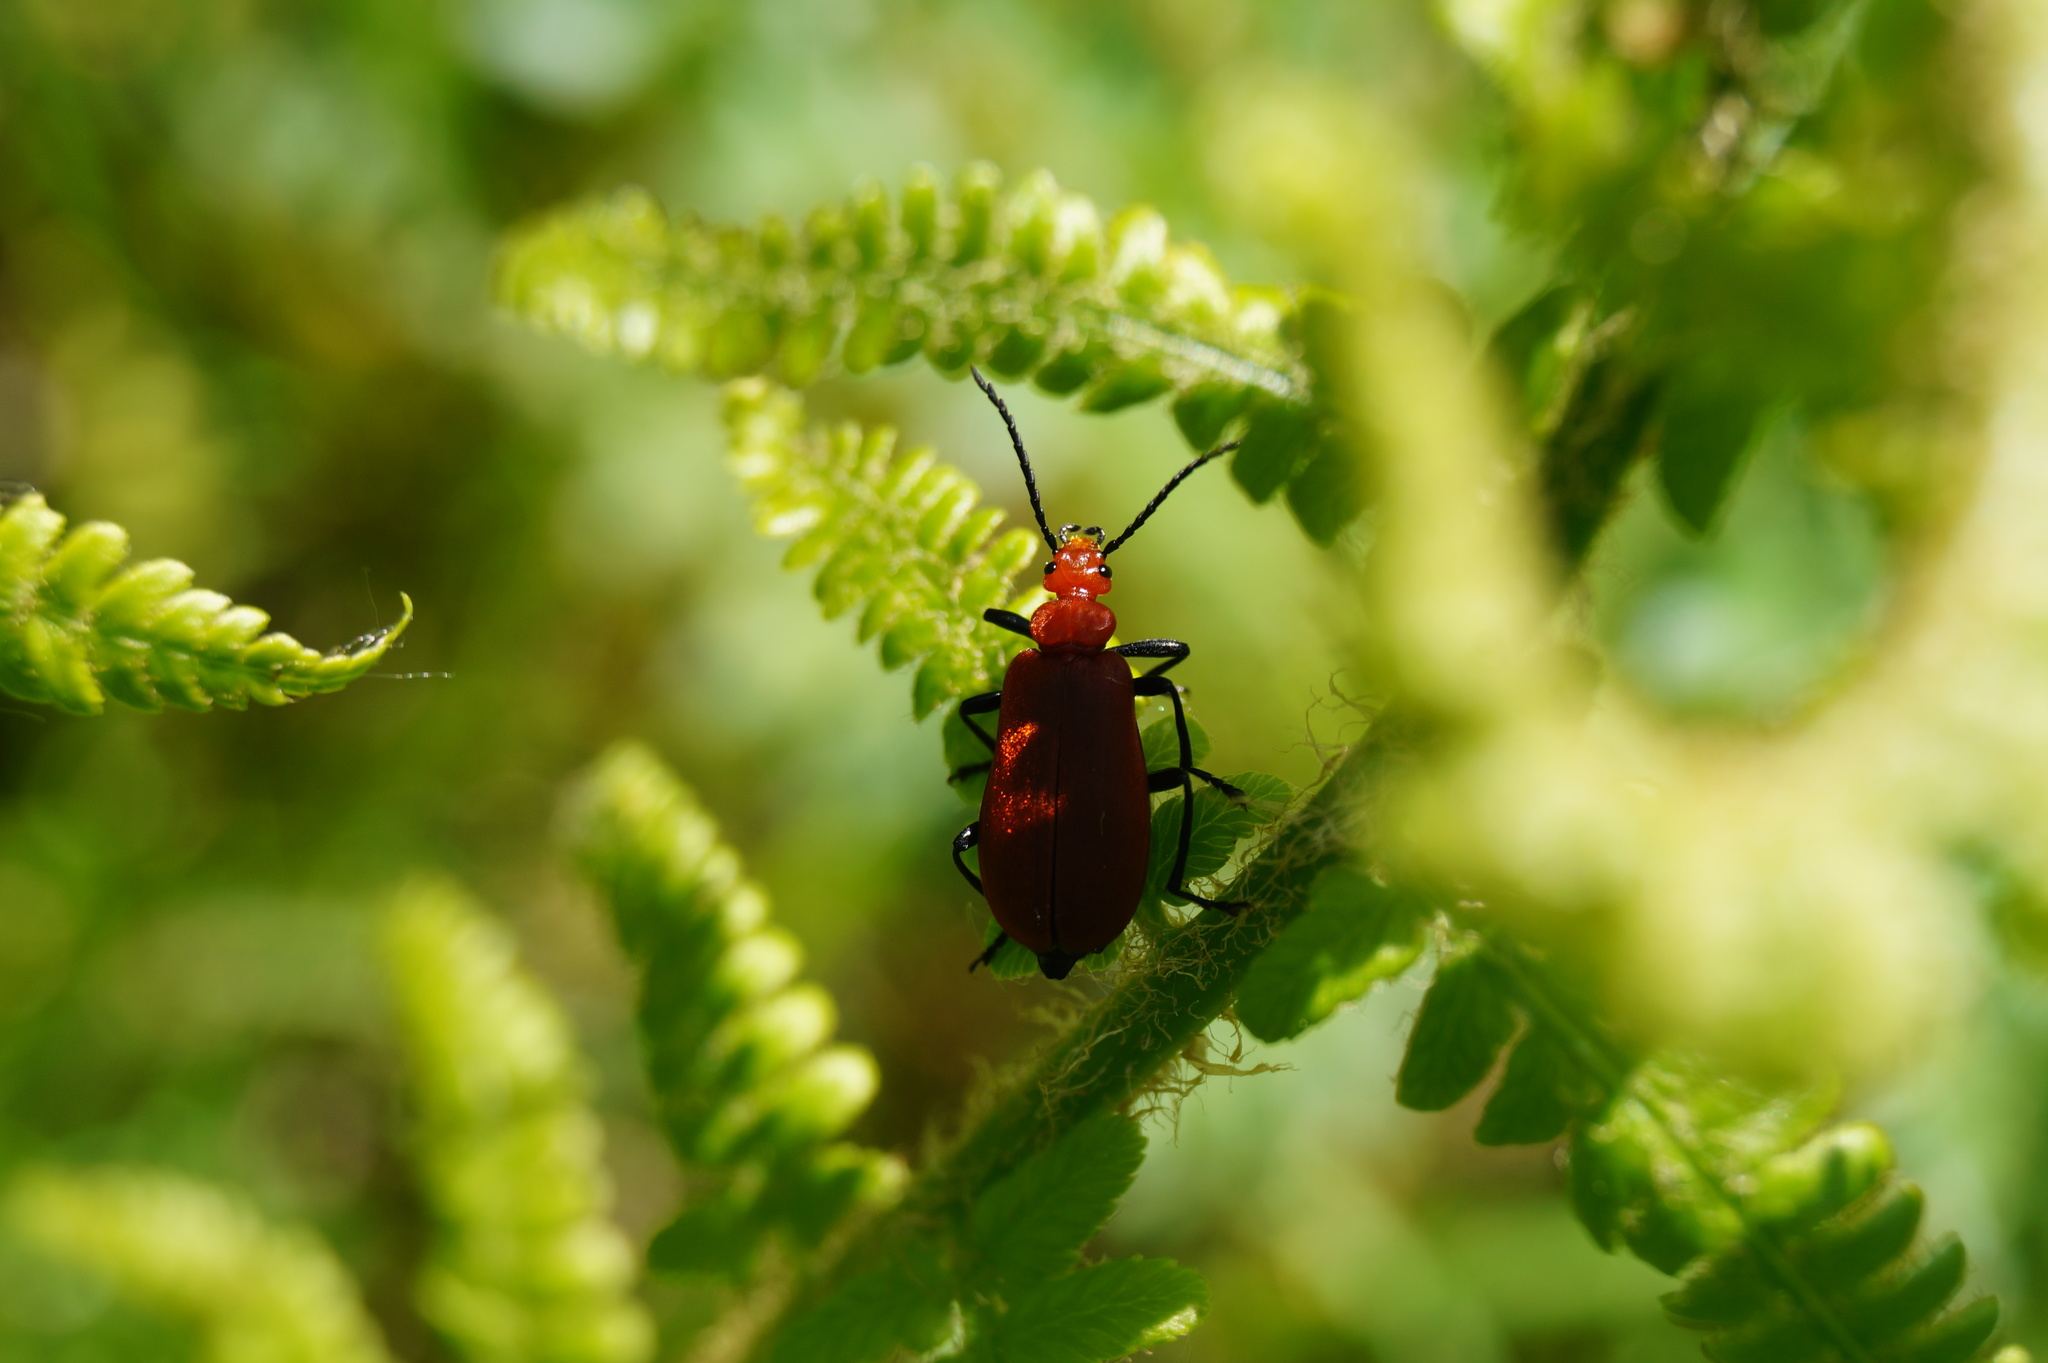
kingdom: Animalia
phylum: Arthropoda
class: Insecta
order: Coleoptera
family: Pyrochroidae
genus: Pyrochroa
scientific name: Pyrochroa serraticornis
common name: Red-headed cardinal beetle
